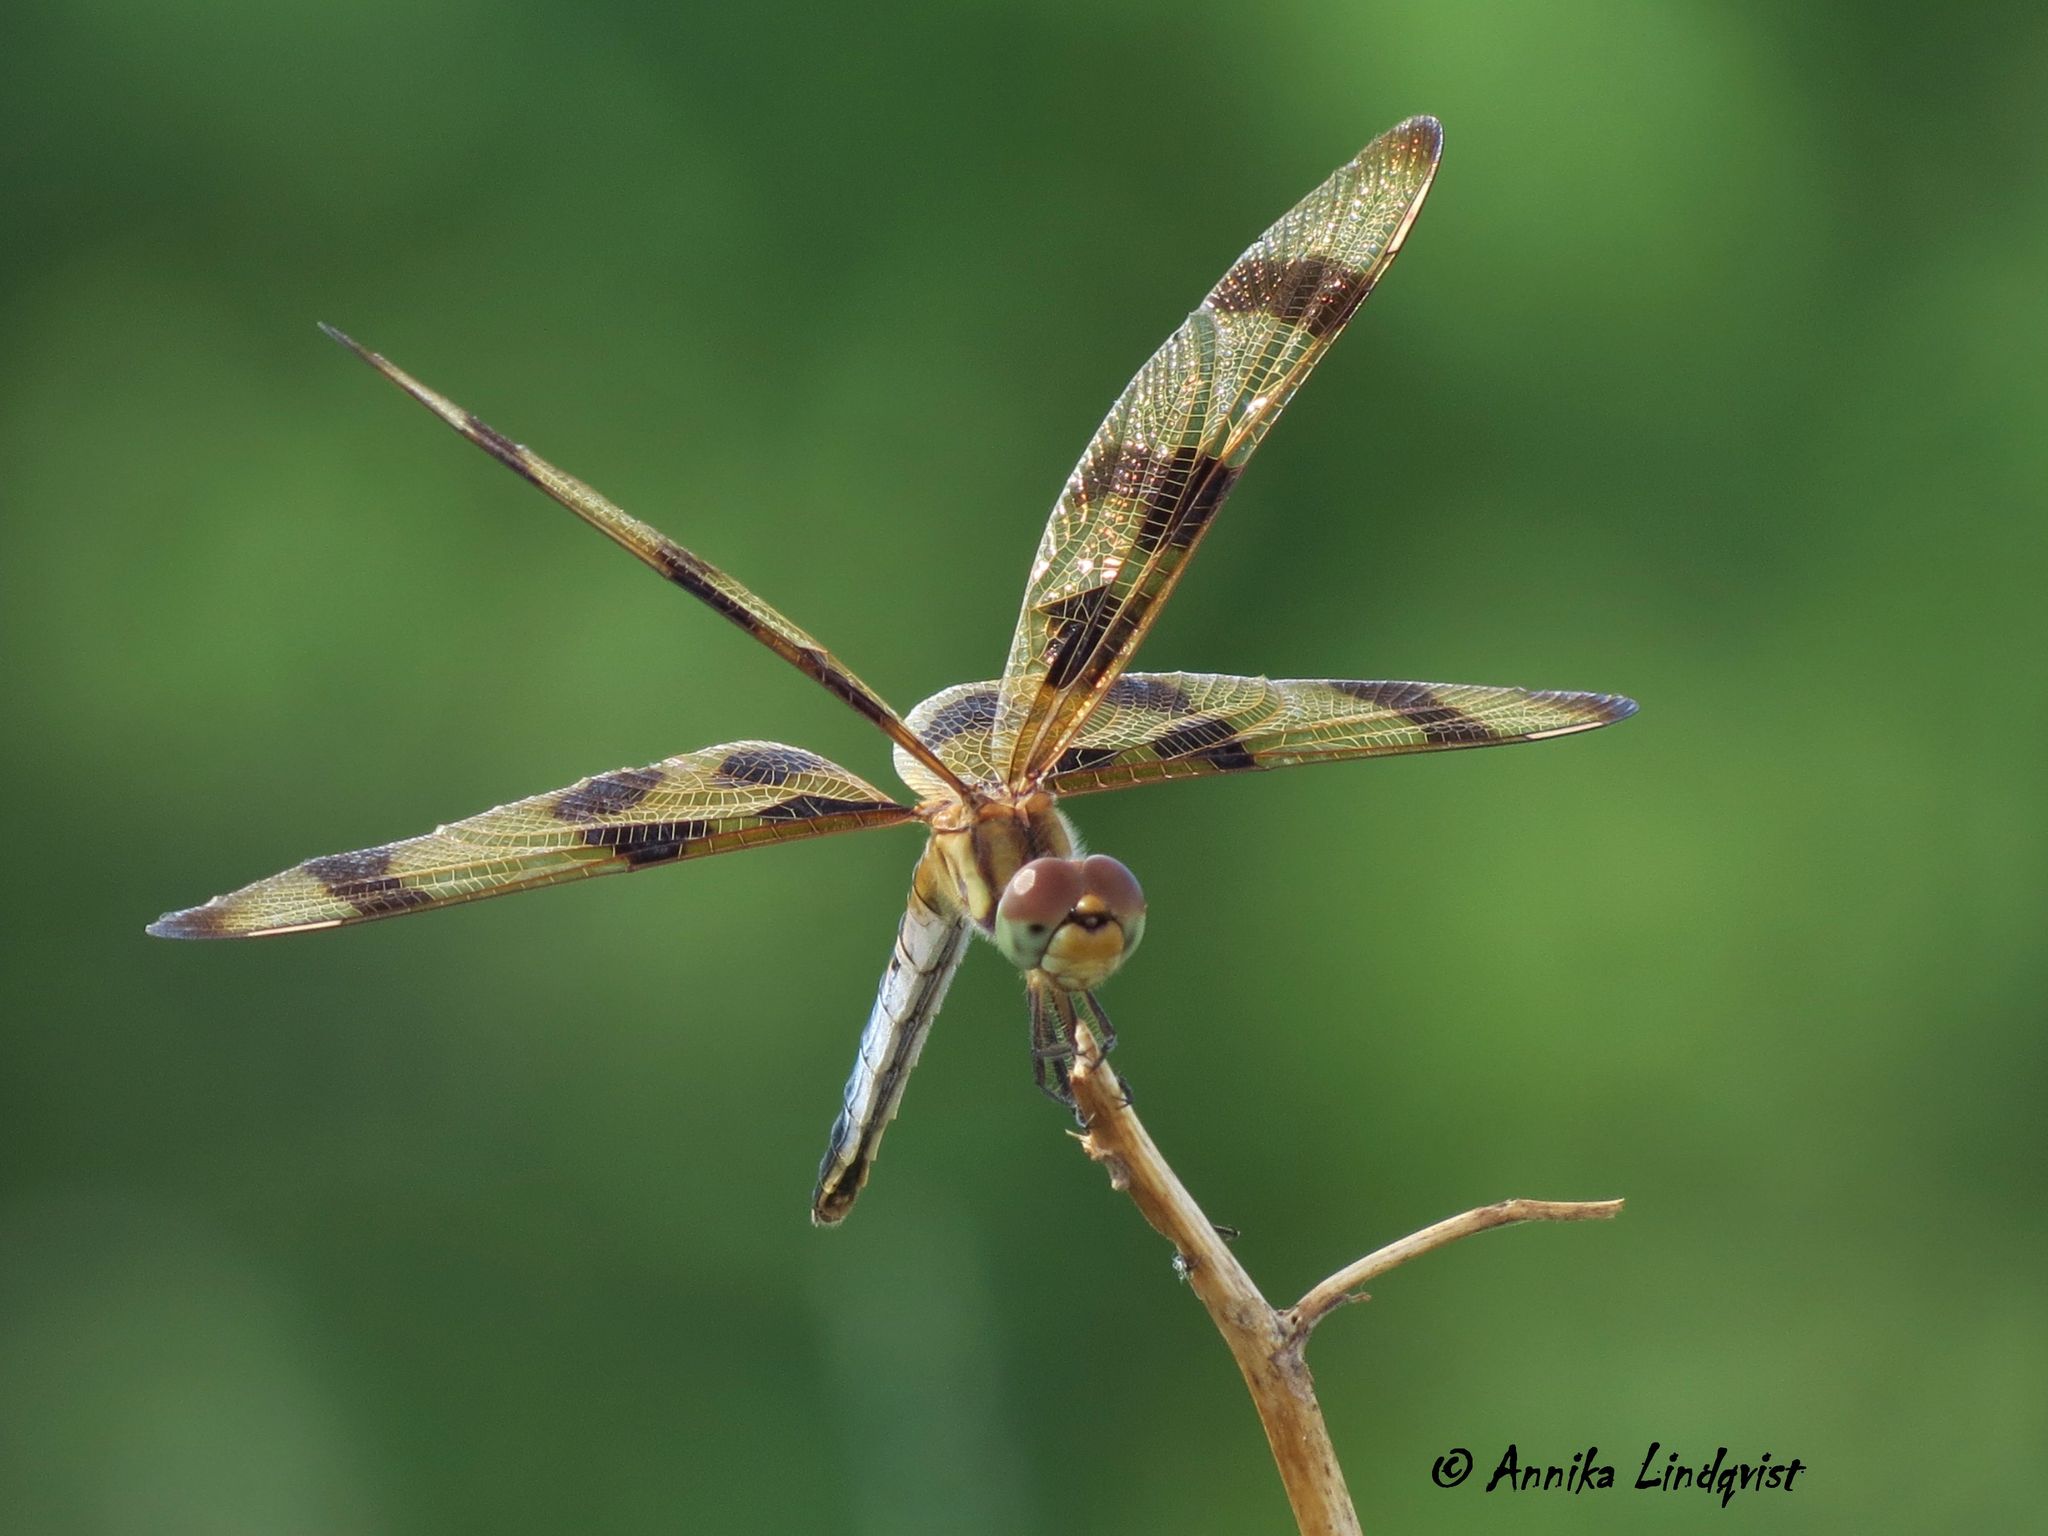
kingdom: Animalia
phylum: Arthropoda
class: Insecta
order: Odonata
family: Libellulidae
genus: Celithemis
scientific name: Celithemis eponina
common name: Halloween pennant
